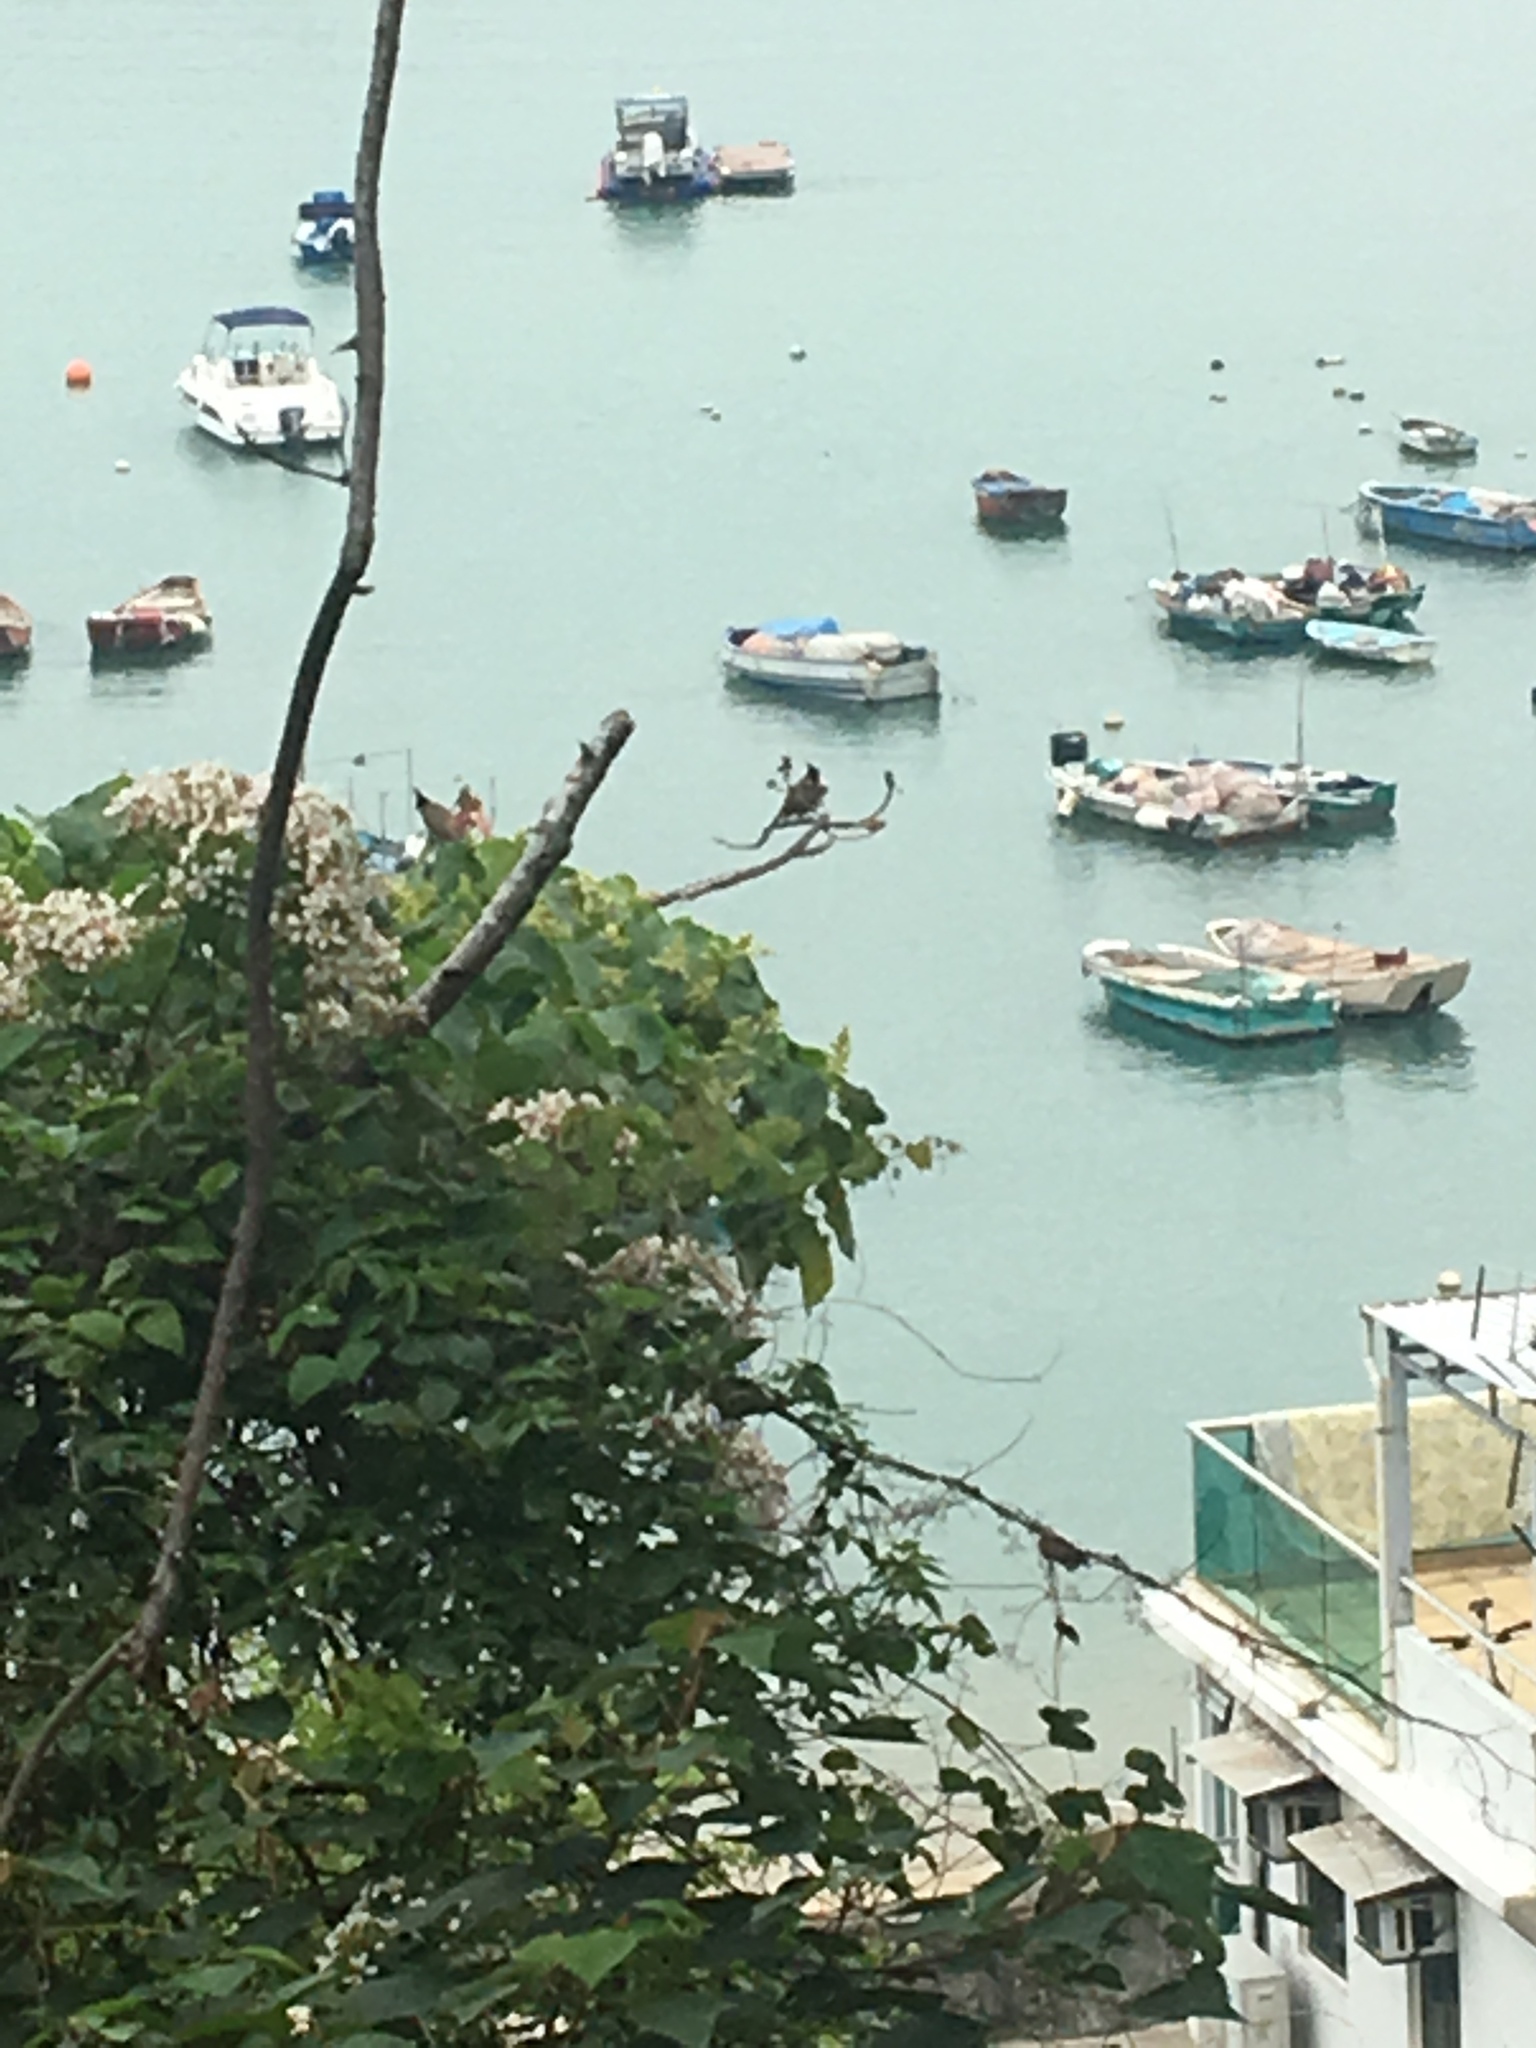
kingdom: Animalia
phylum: Chordata
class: Aves
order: Passeriformes
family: Pycnonotidae
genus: Pycnonotus
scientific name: Pycnonotus jocosus
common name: Red-whiskered bulbul
